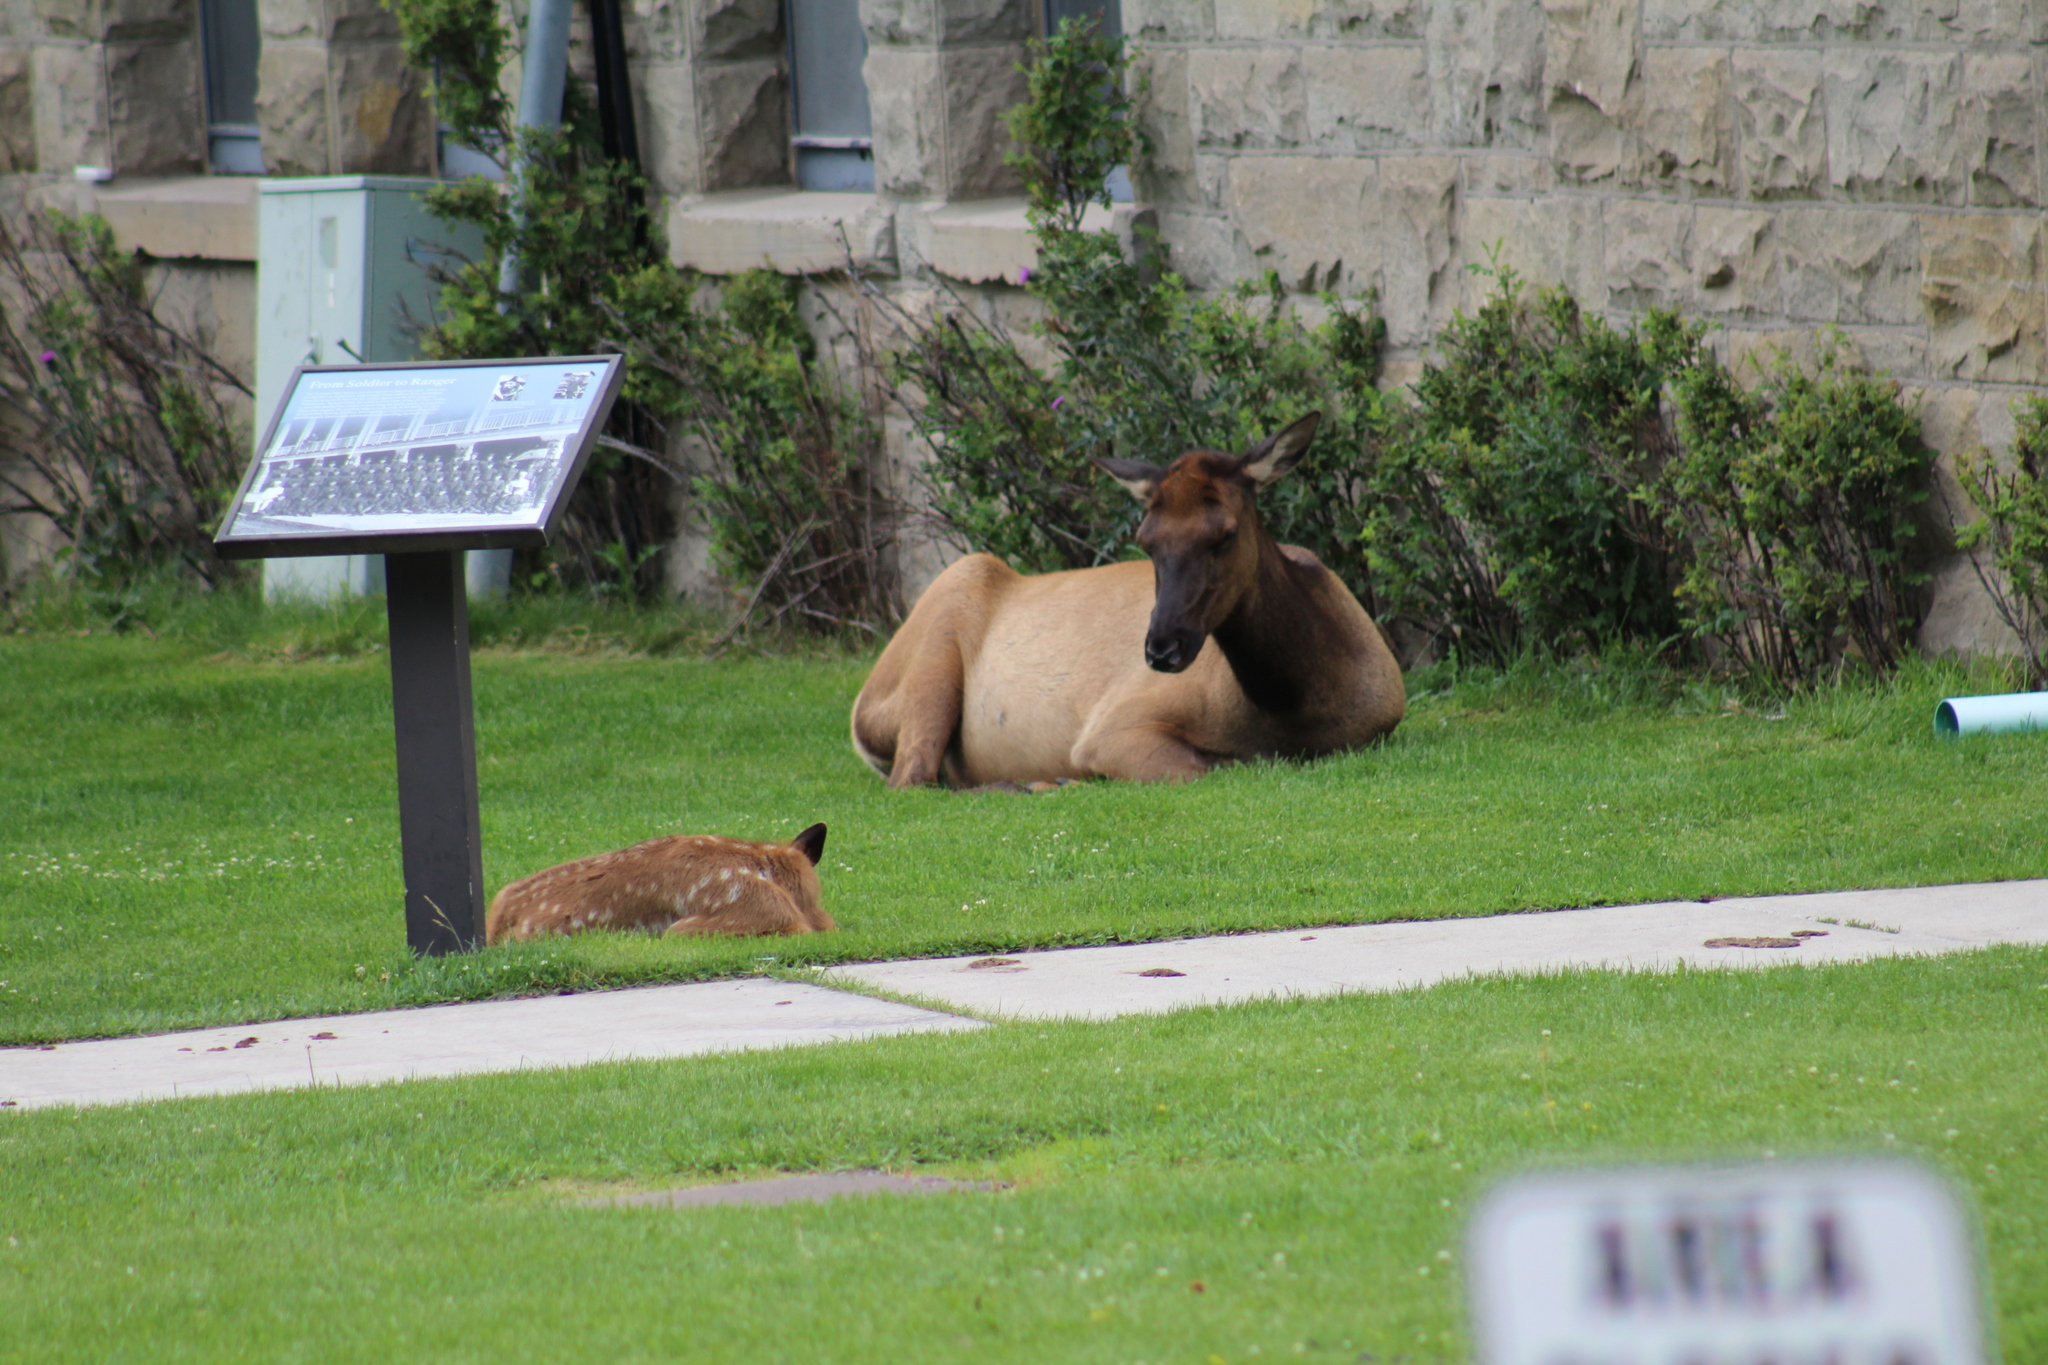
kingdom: Animalia
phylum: Chordata
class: Mammalia
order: Artiodactyla
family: Cervidae
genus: Cervus
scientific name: Cervus elaphus
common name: Red deer
